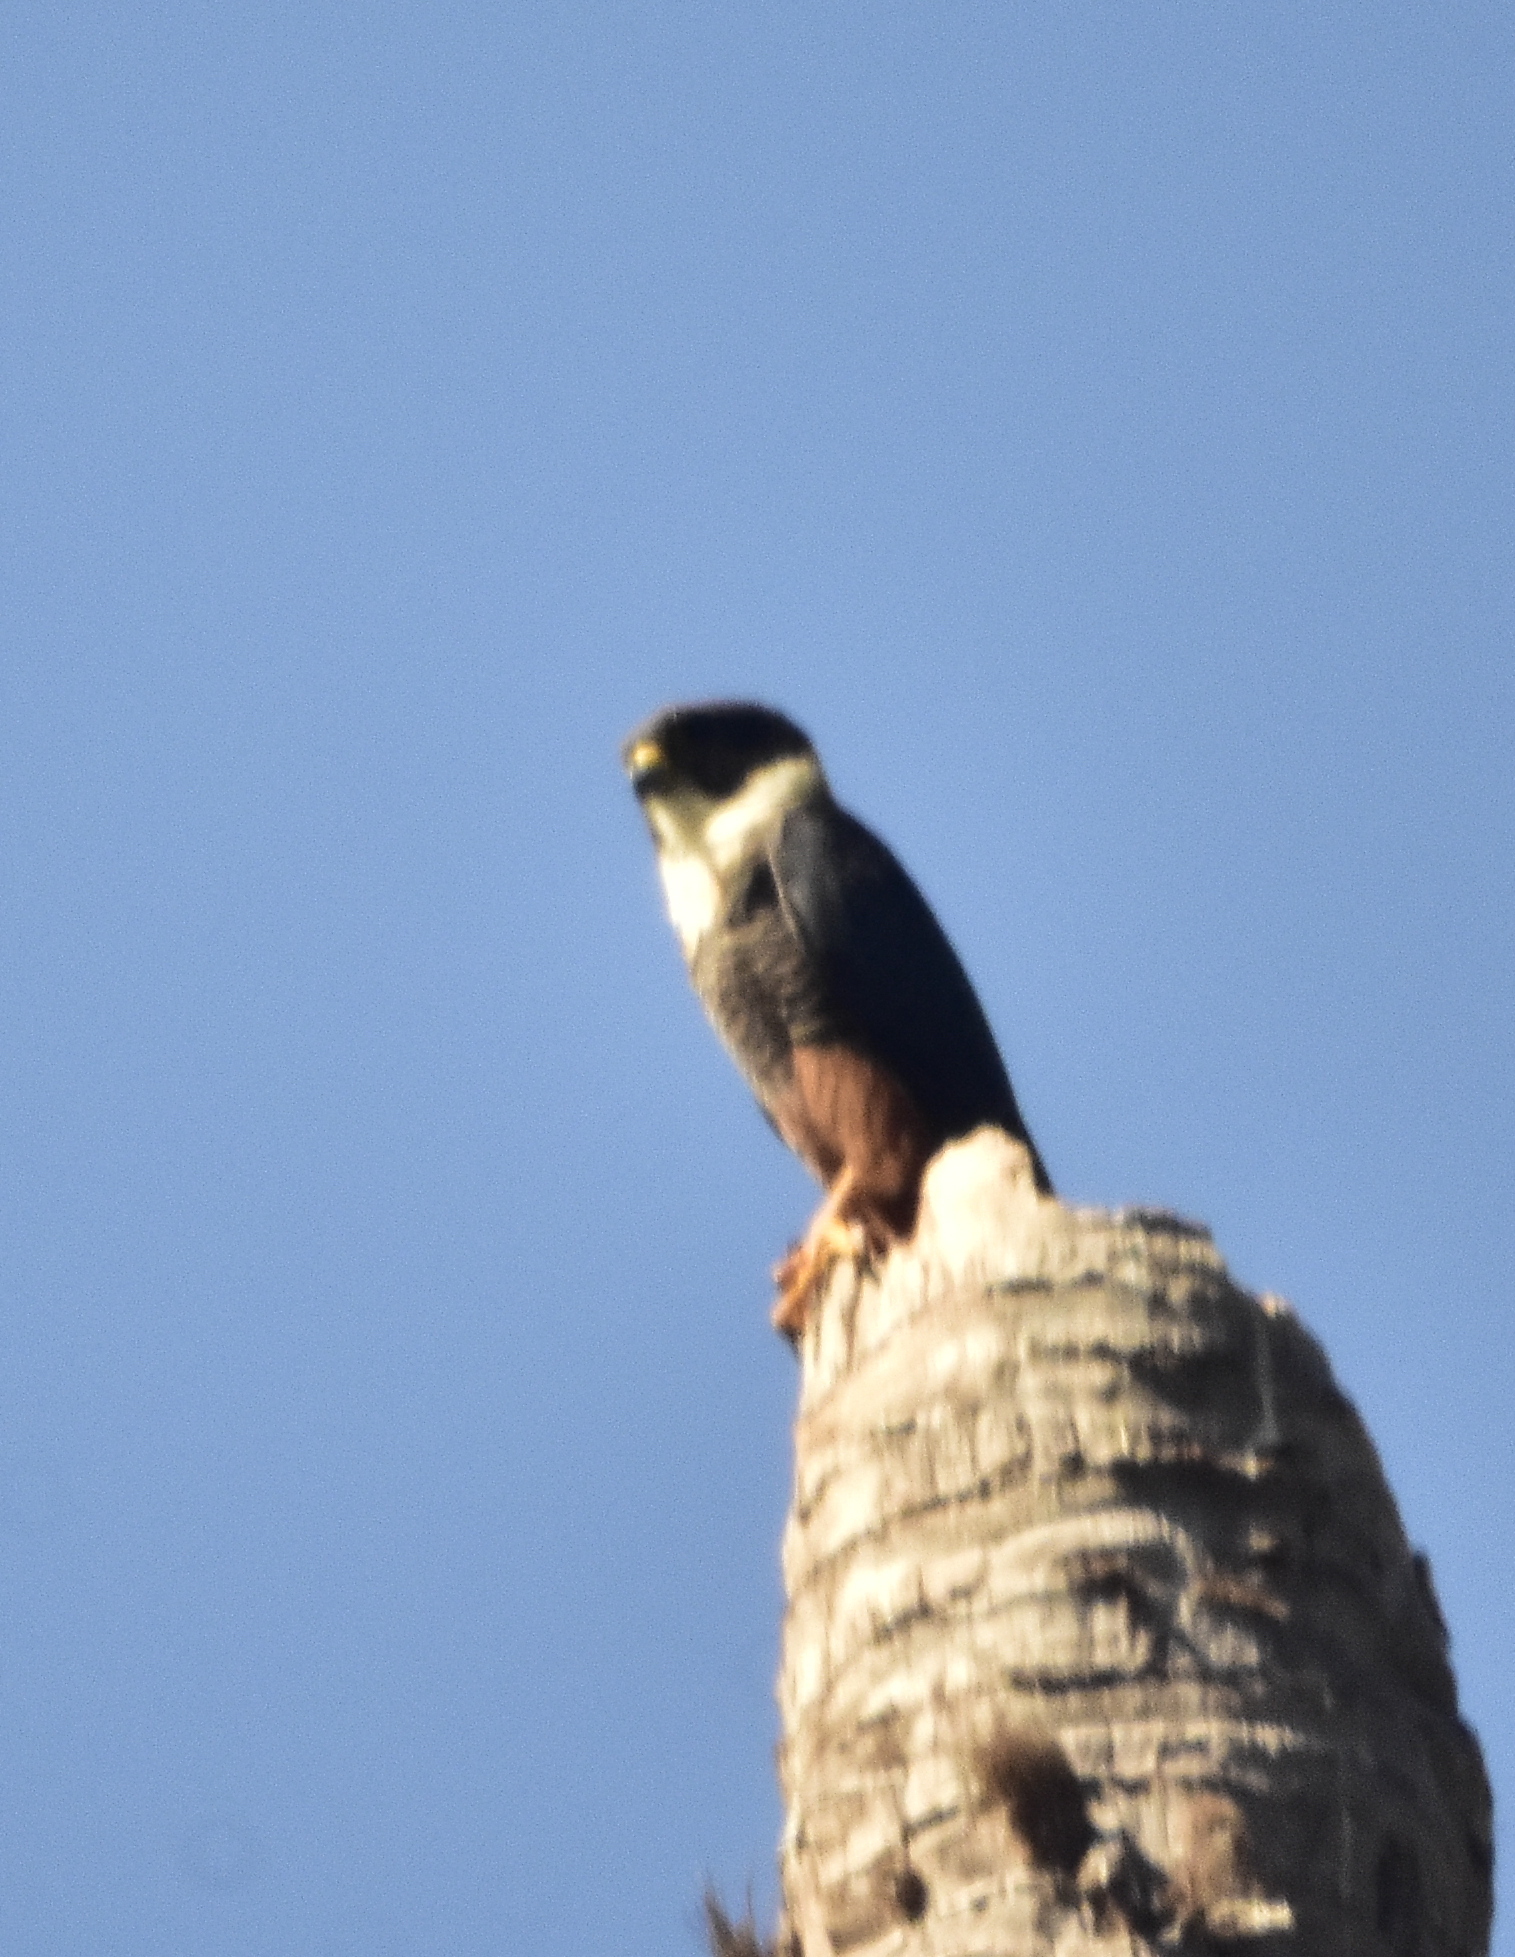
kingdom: Animalia
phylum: Chordata
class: Aves
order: Falconiformes
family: Falconidae
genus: Falco
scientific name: Falco rufigularis
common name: Bat falcon
